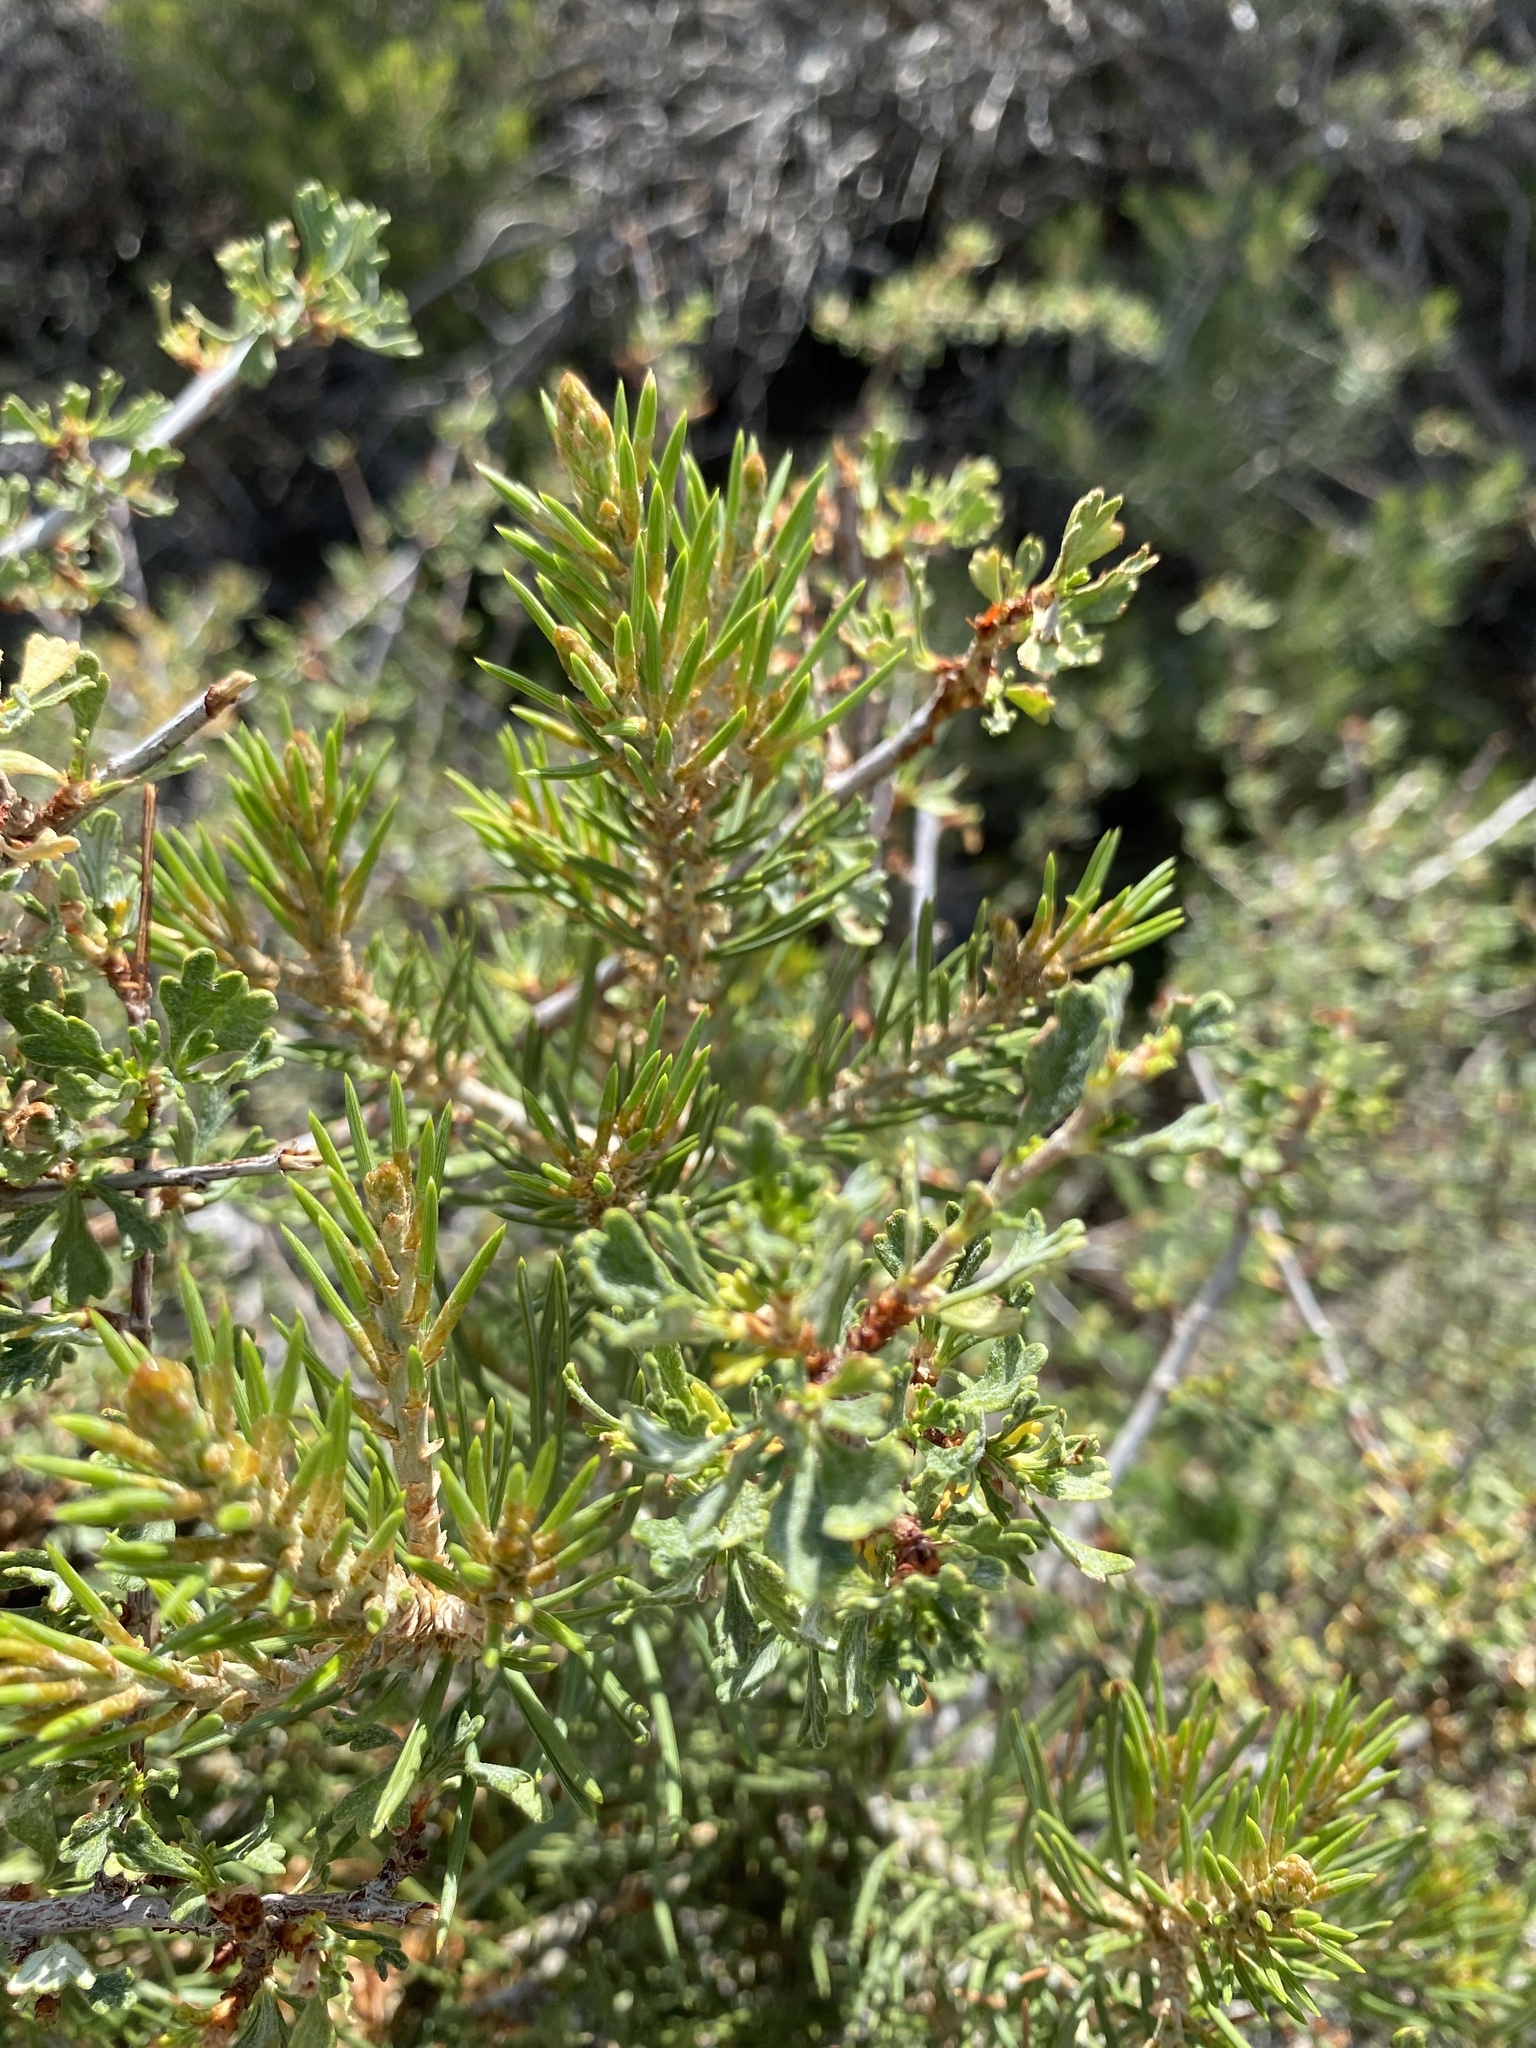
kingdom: Plantae
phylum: Tracheophyta
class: Magnoliopsida
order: Rosales
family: Rosaceae
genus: Purshia
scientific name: Purshia tridentata
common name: Antelope bitterbrush
